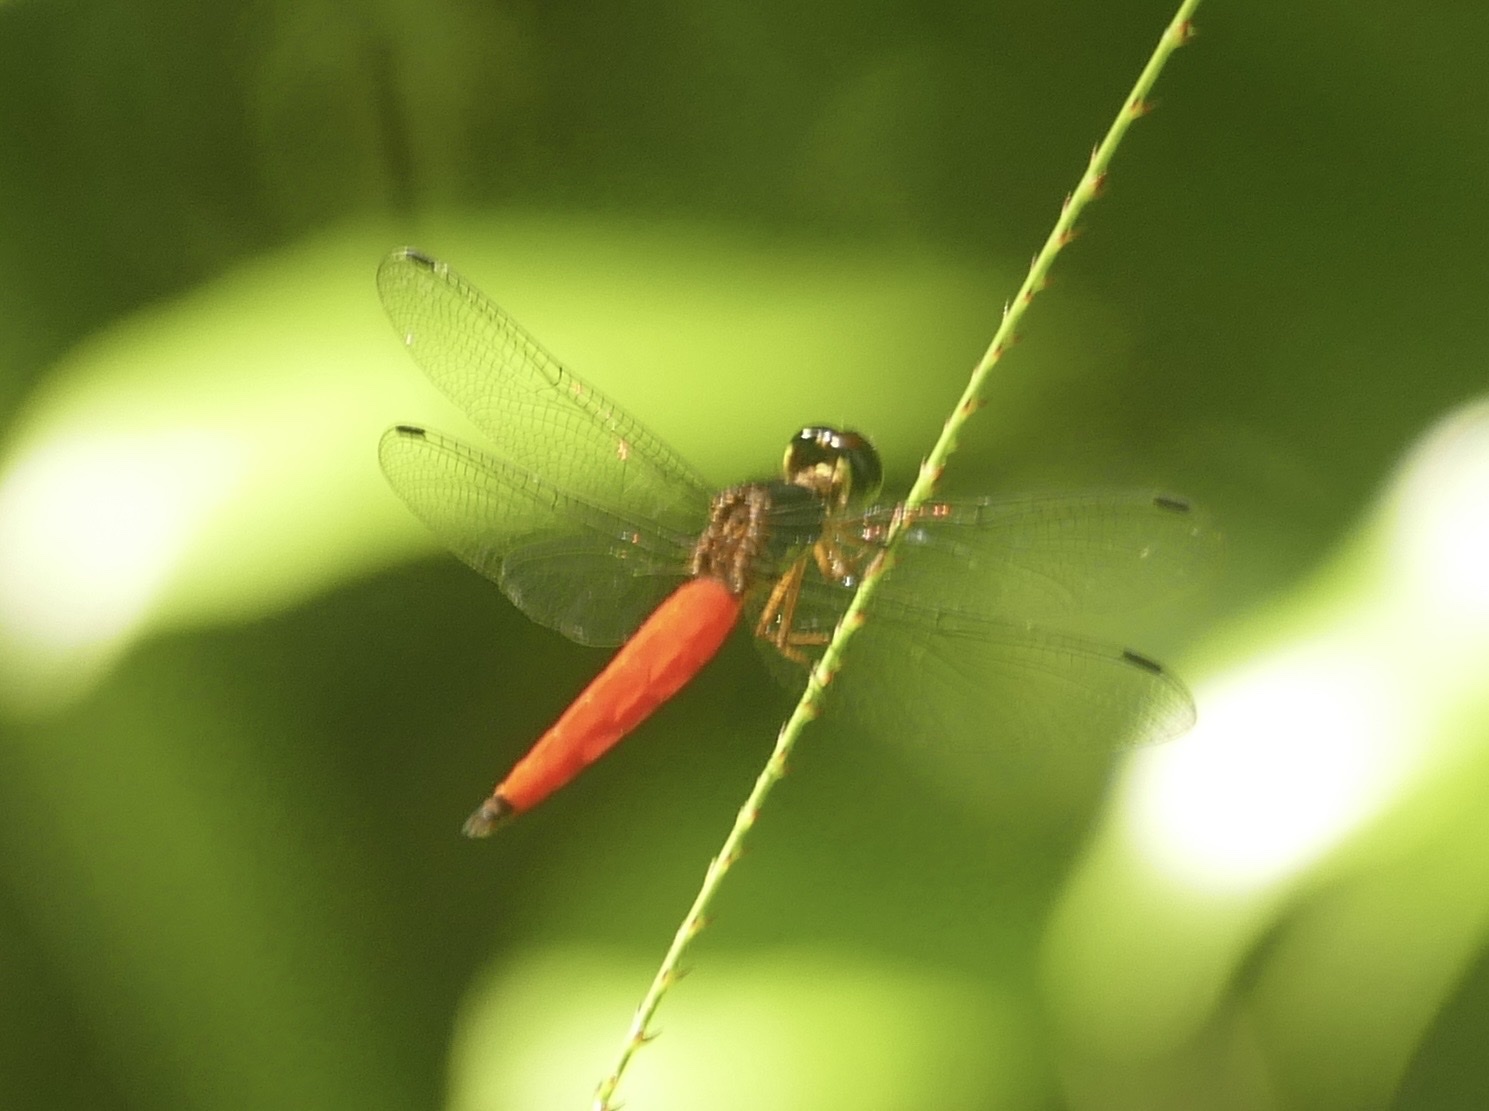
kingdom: Animalia
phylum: Arthropoda
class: Insecta
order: Odonata
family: Libellulidae
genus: Lyriothemis
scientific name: Lyriothemis meyeri
